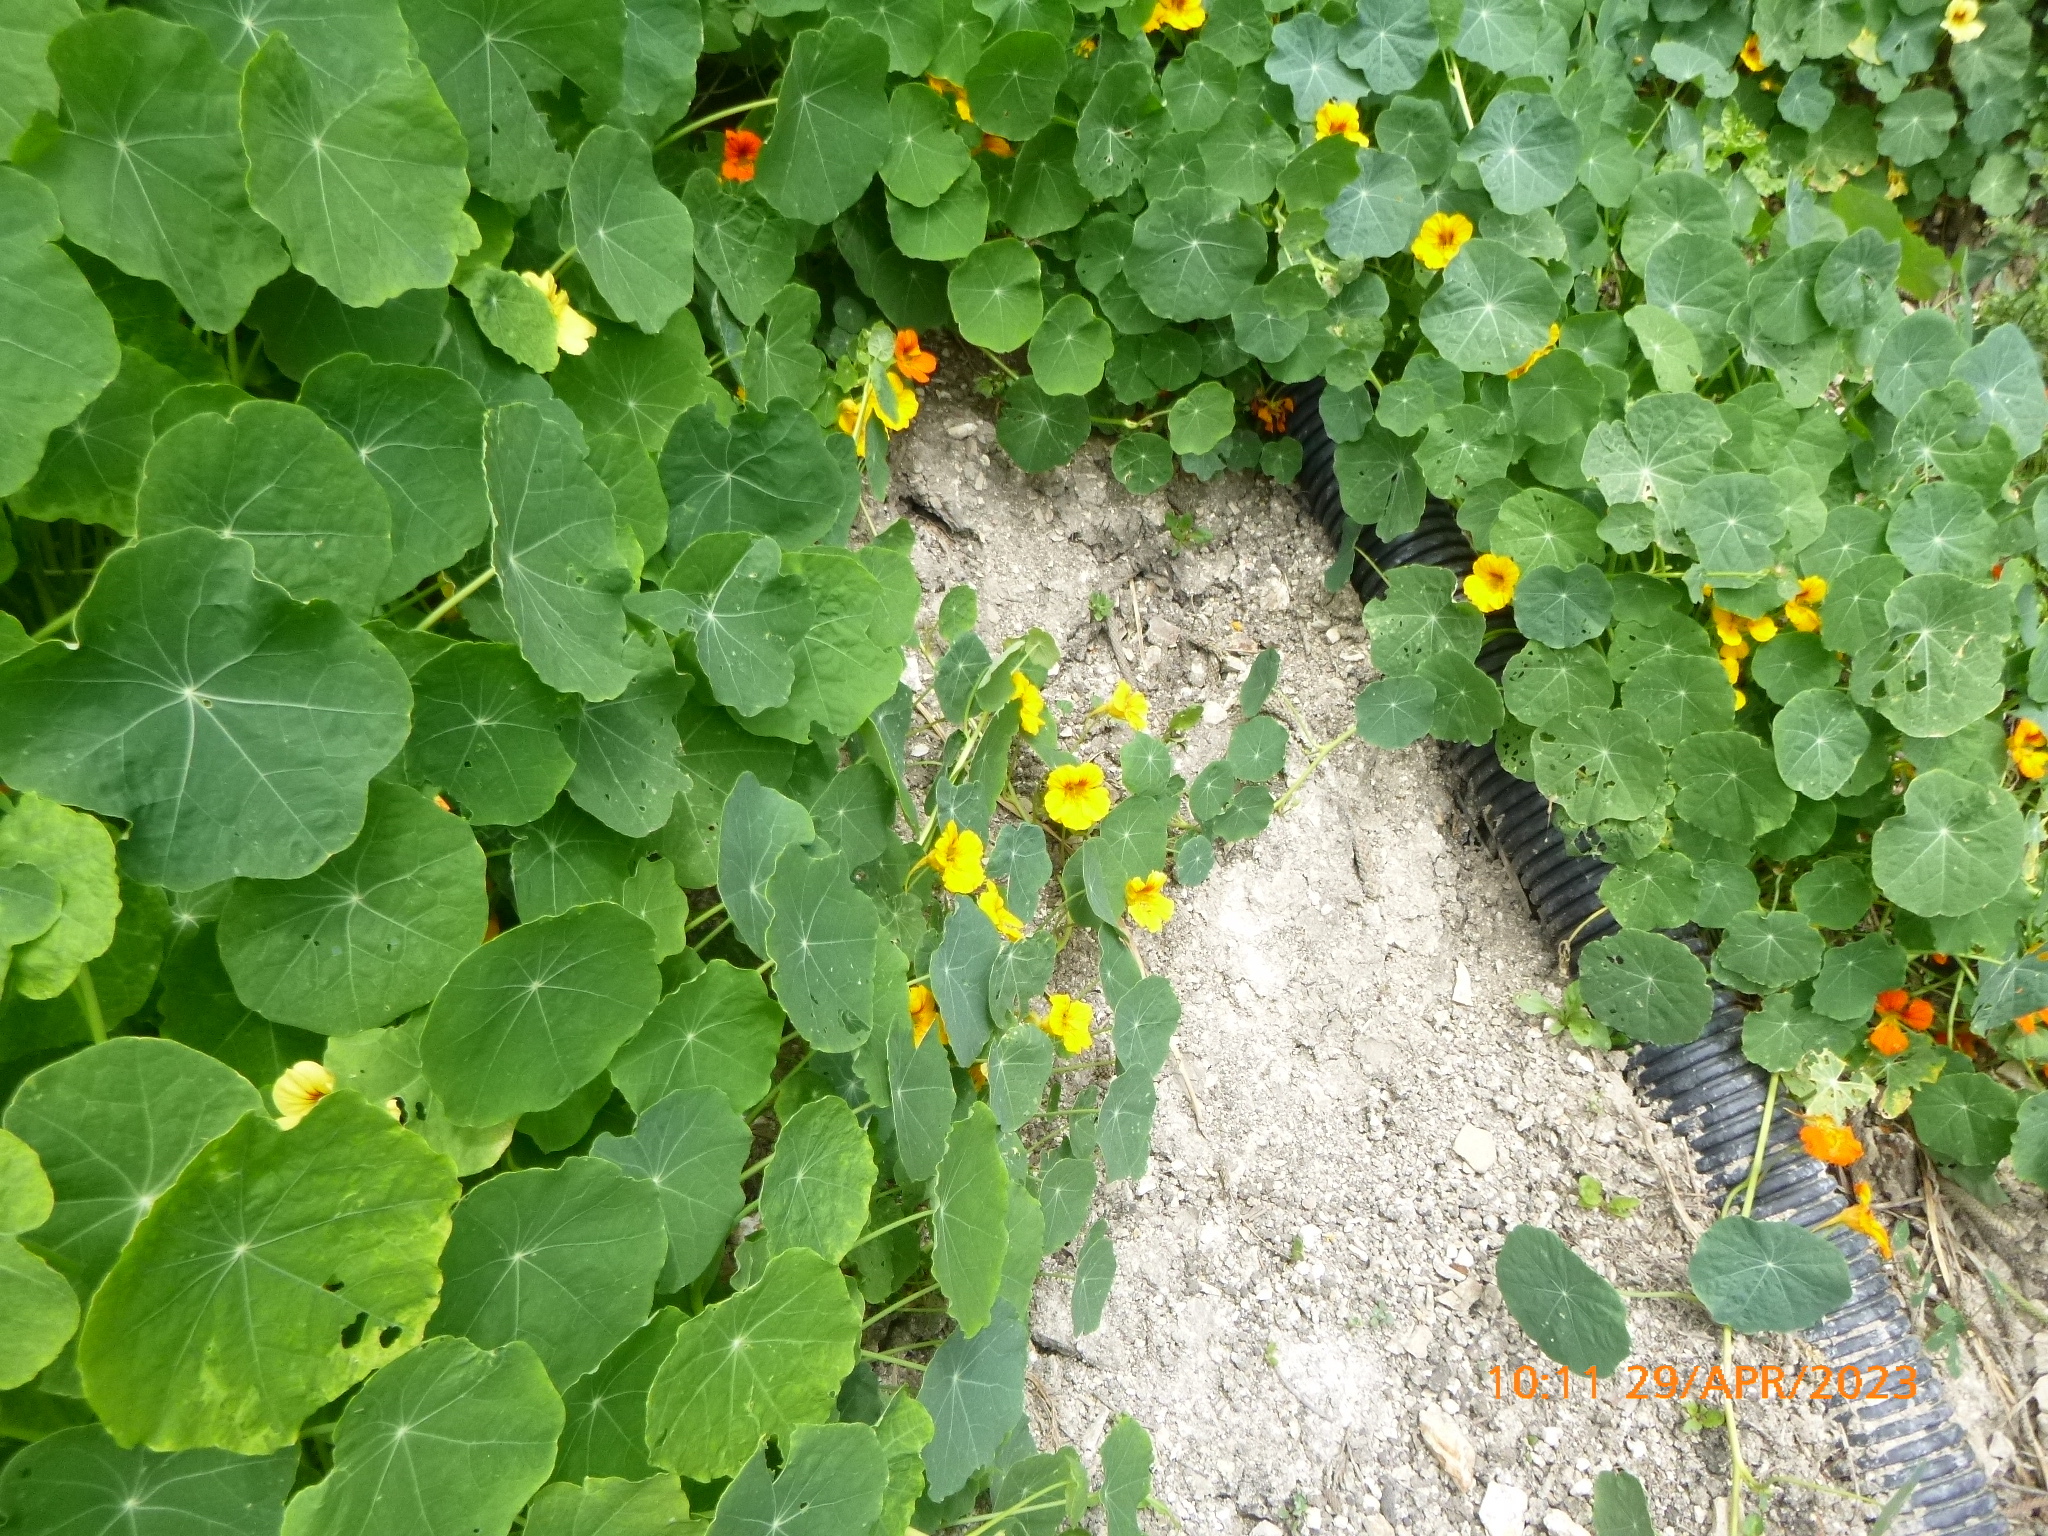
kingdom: Plantae
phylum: Tracheophyta
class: Magnoliopsida
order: Brassicales
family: Tropaeolaceae
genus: Tropaeolum
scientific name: Tropaeolum majus
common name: Nasturtium
